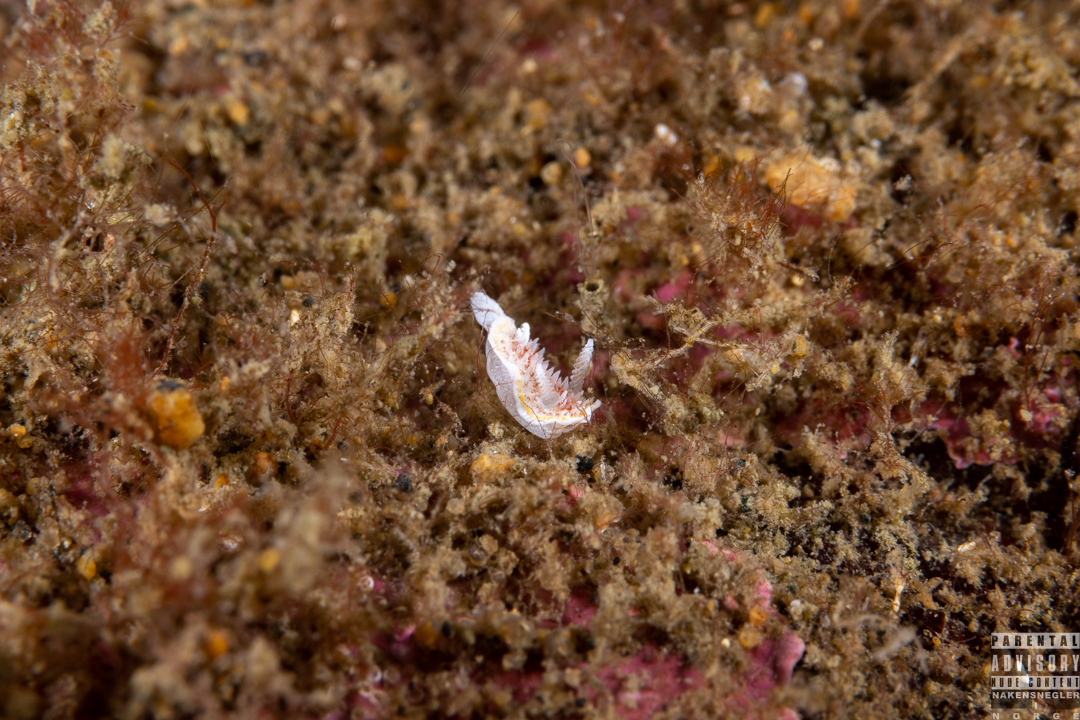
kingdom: Animalia
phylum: Mollusca
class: Gastropoda
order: Nudibranchia
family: Calycidorididae
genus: Diaphorodoris
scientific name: Diaphorodoris luteocincta
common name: Fried egg nudibranch
